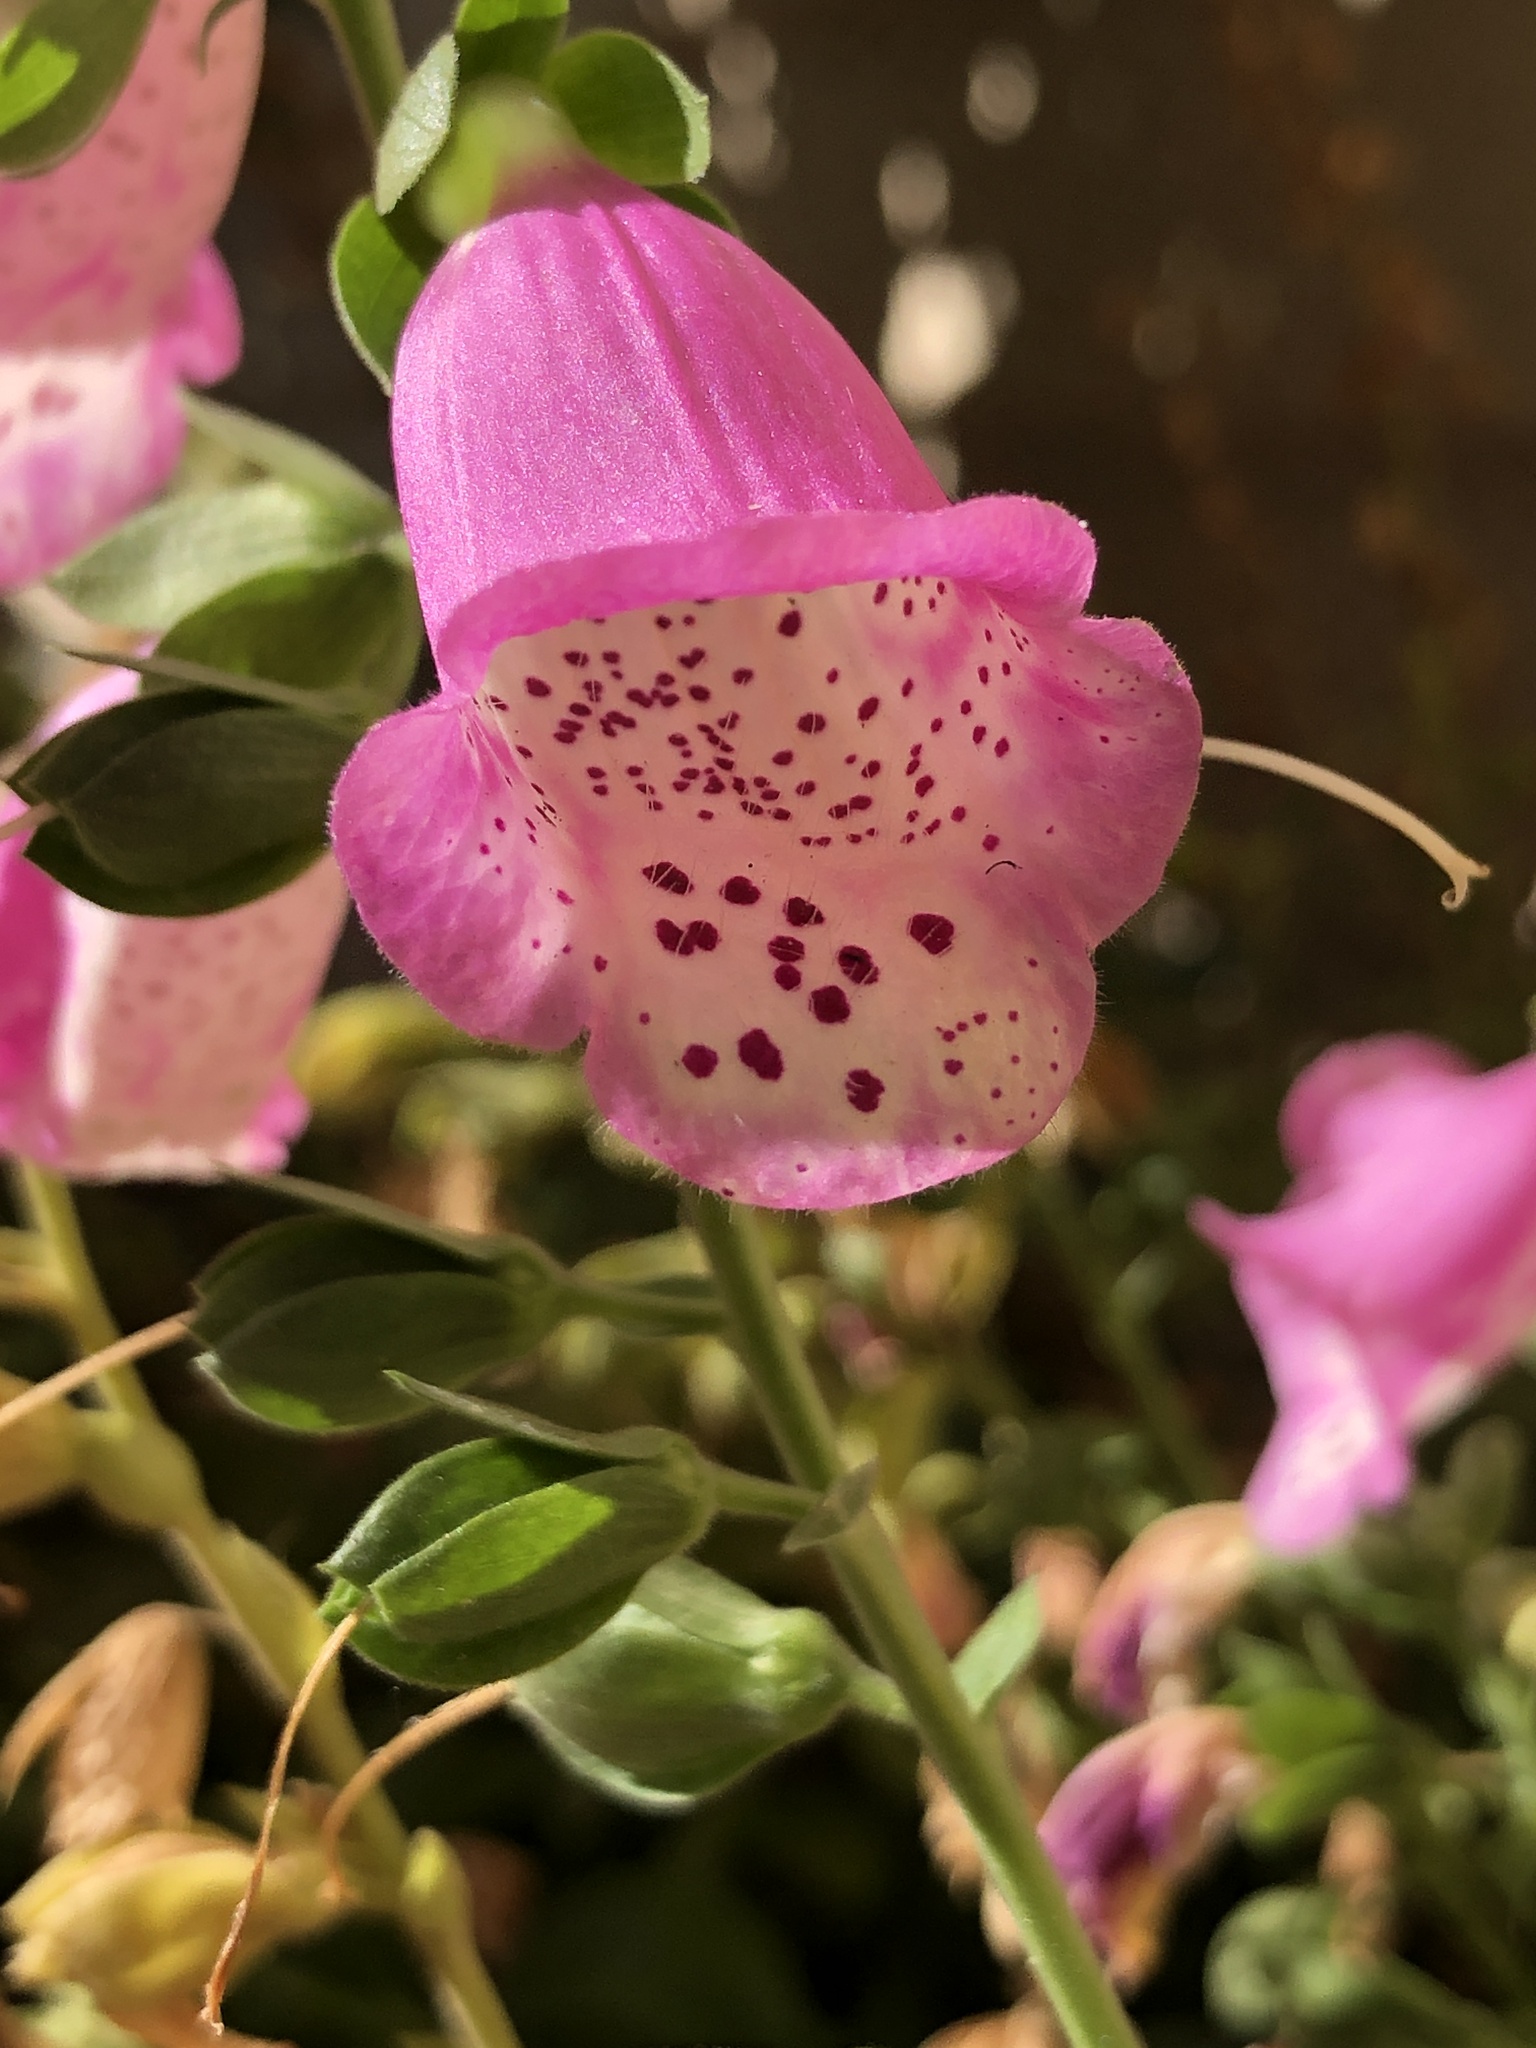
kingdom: Plantae
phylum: Tracheophyta
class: Magnoliopsida
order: Lamiales
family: Plantaginaceae
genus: Digitalis
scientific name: Digitalis purpurea
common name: Foxglove
